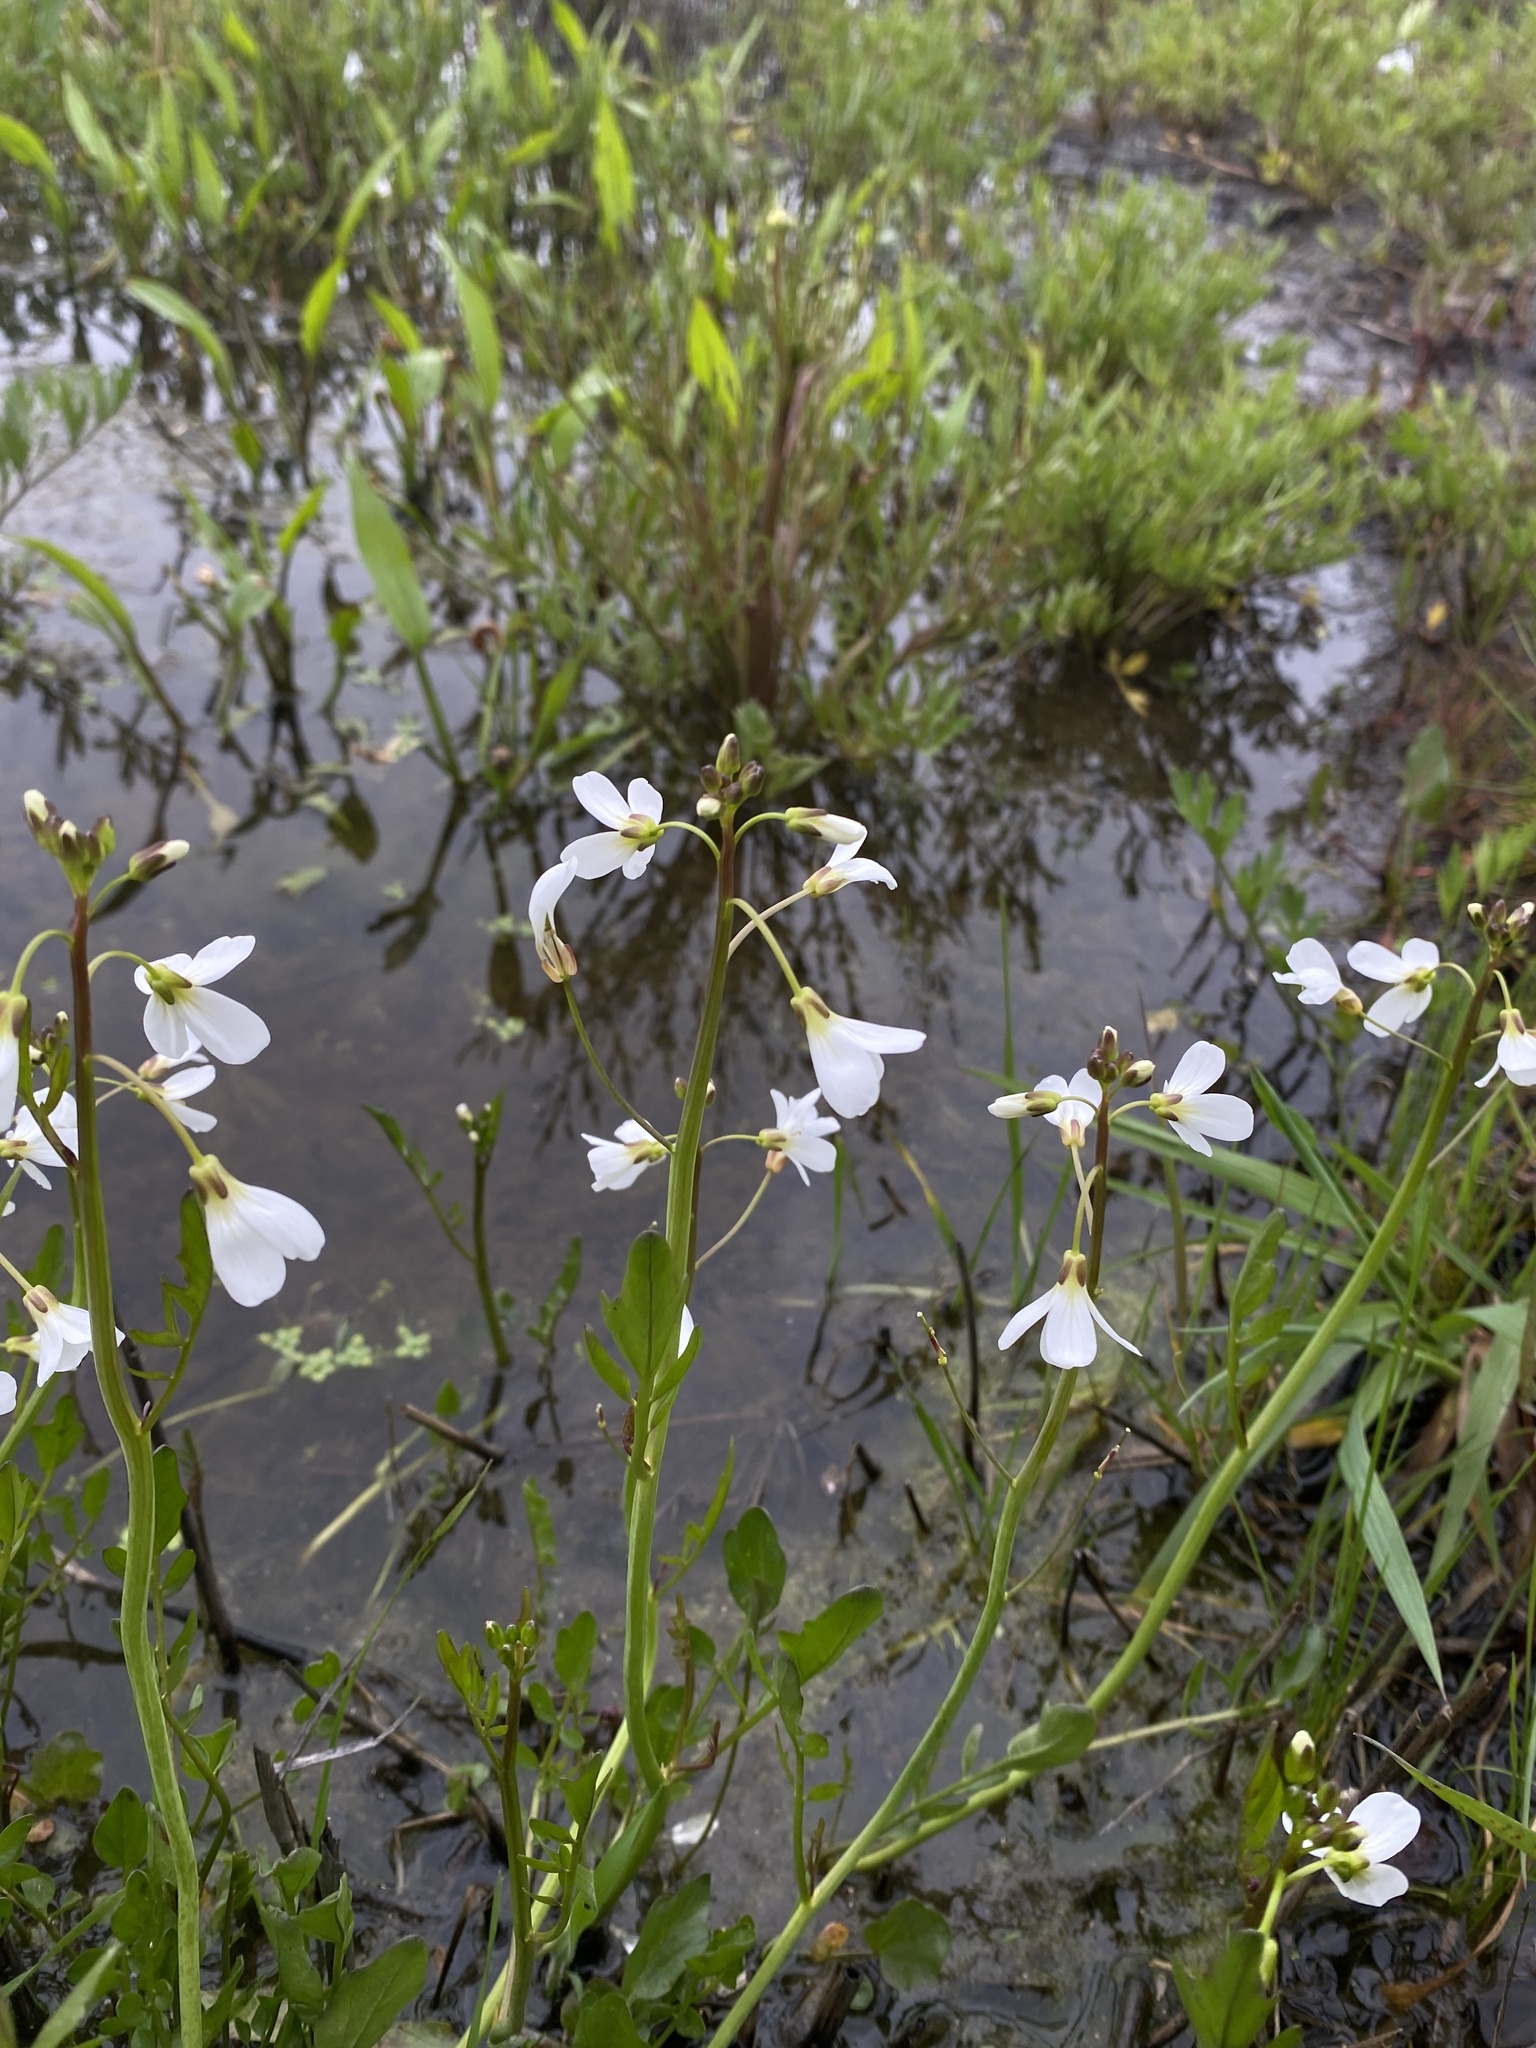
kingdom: Plantae
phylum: Tracheophyta
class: Magnoliopsida
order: Brassicales
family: Brassicaceae
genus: Cardamine
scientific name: Cardamine penduliflora
